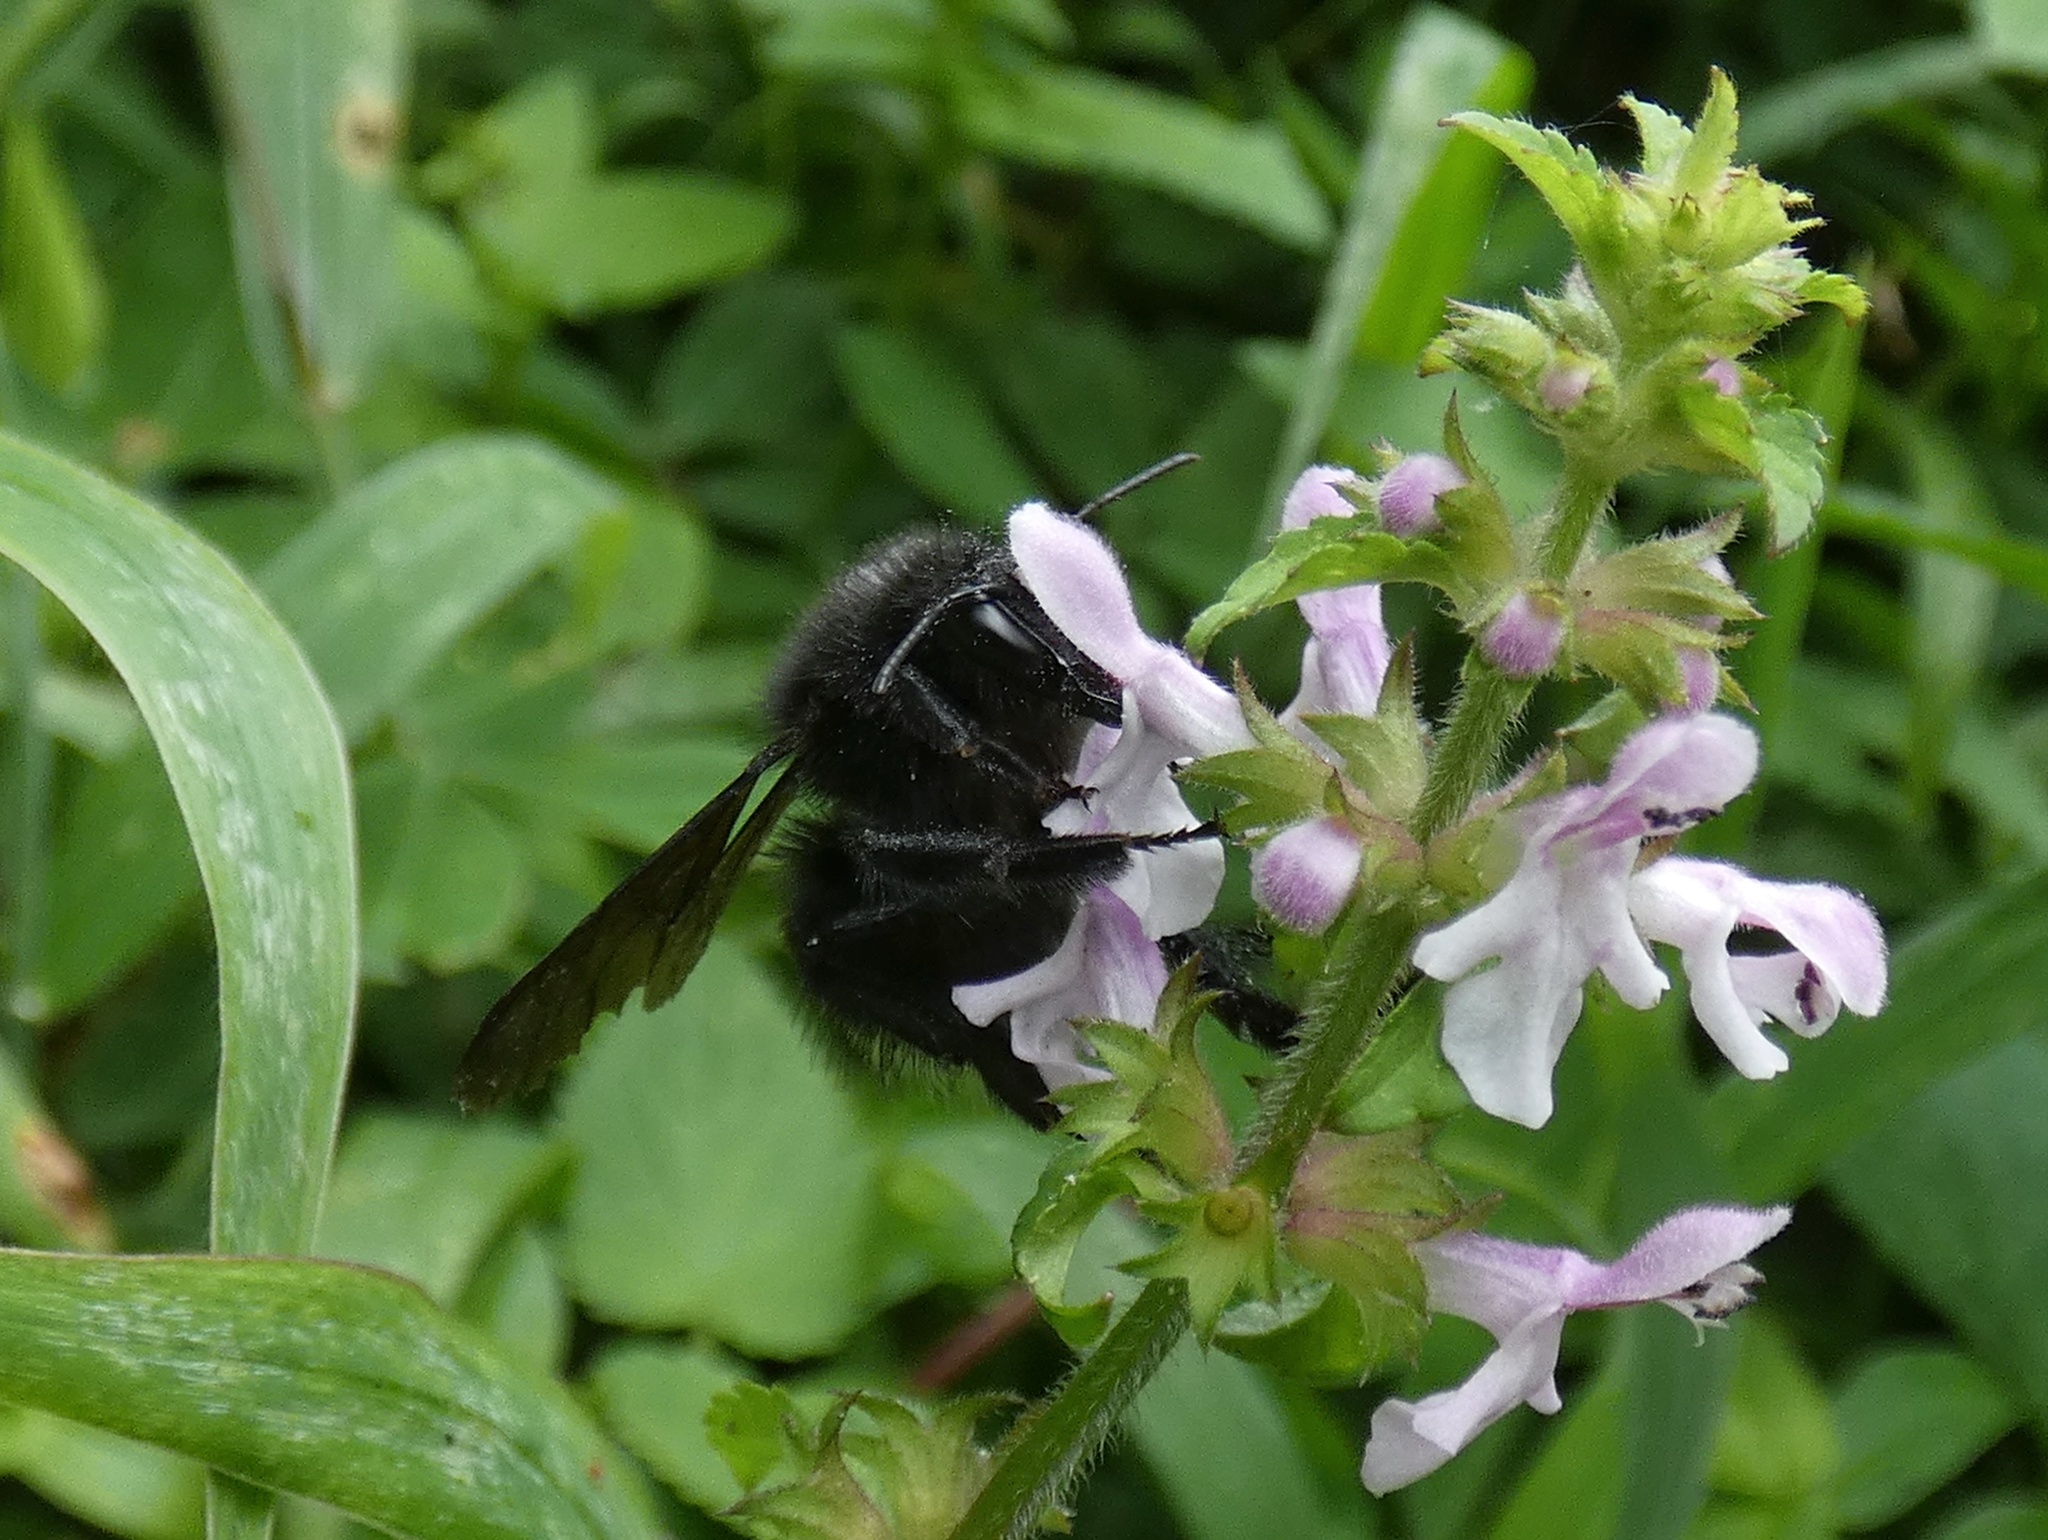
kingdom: Animalia
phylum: Arthropoda
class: Insecta
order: Hymenoptera
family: Apidae
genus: Bombus
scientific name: Bombus pullatus
